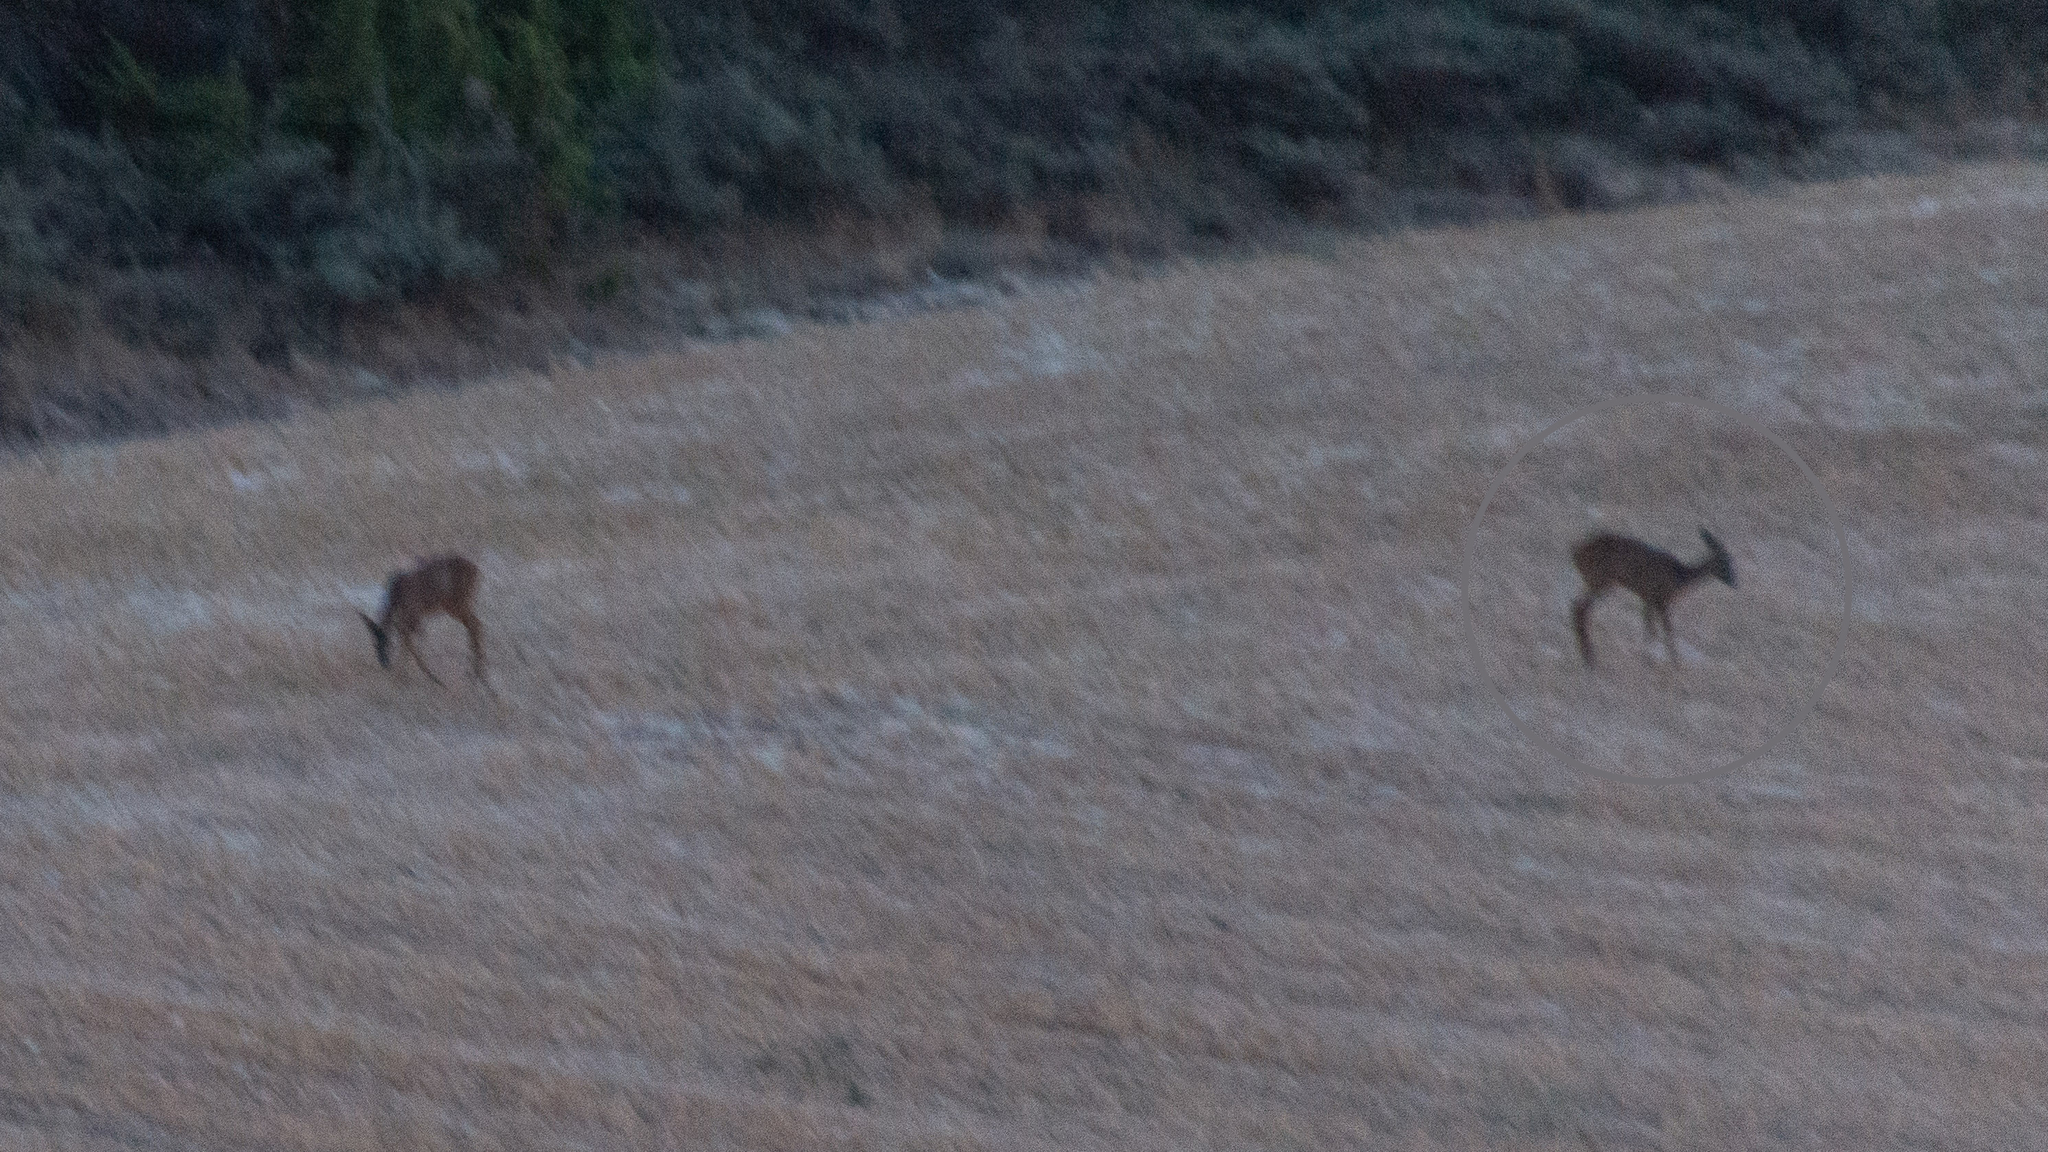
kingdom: Animalia
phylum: Chordata
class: Mammalia
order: Artiodactyla
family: Cervidae
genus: Capreolus
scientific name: Capreolus capreolus
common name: Western roe deer
